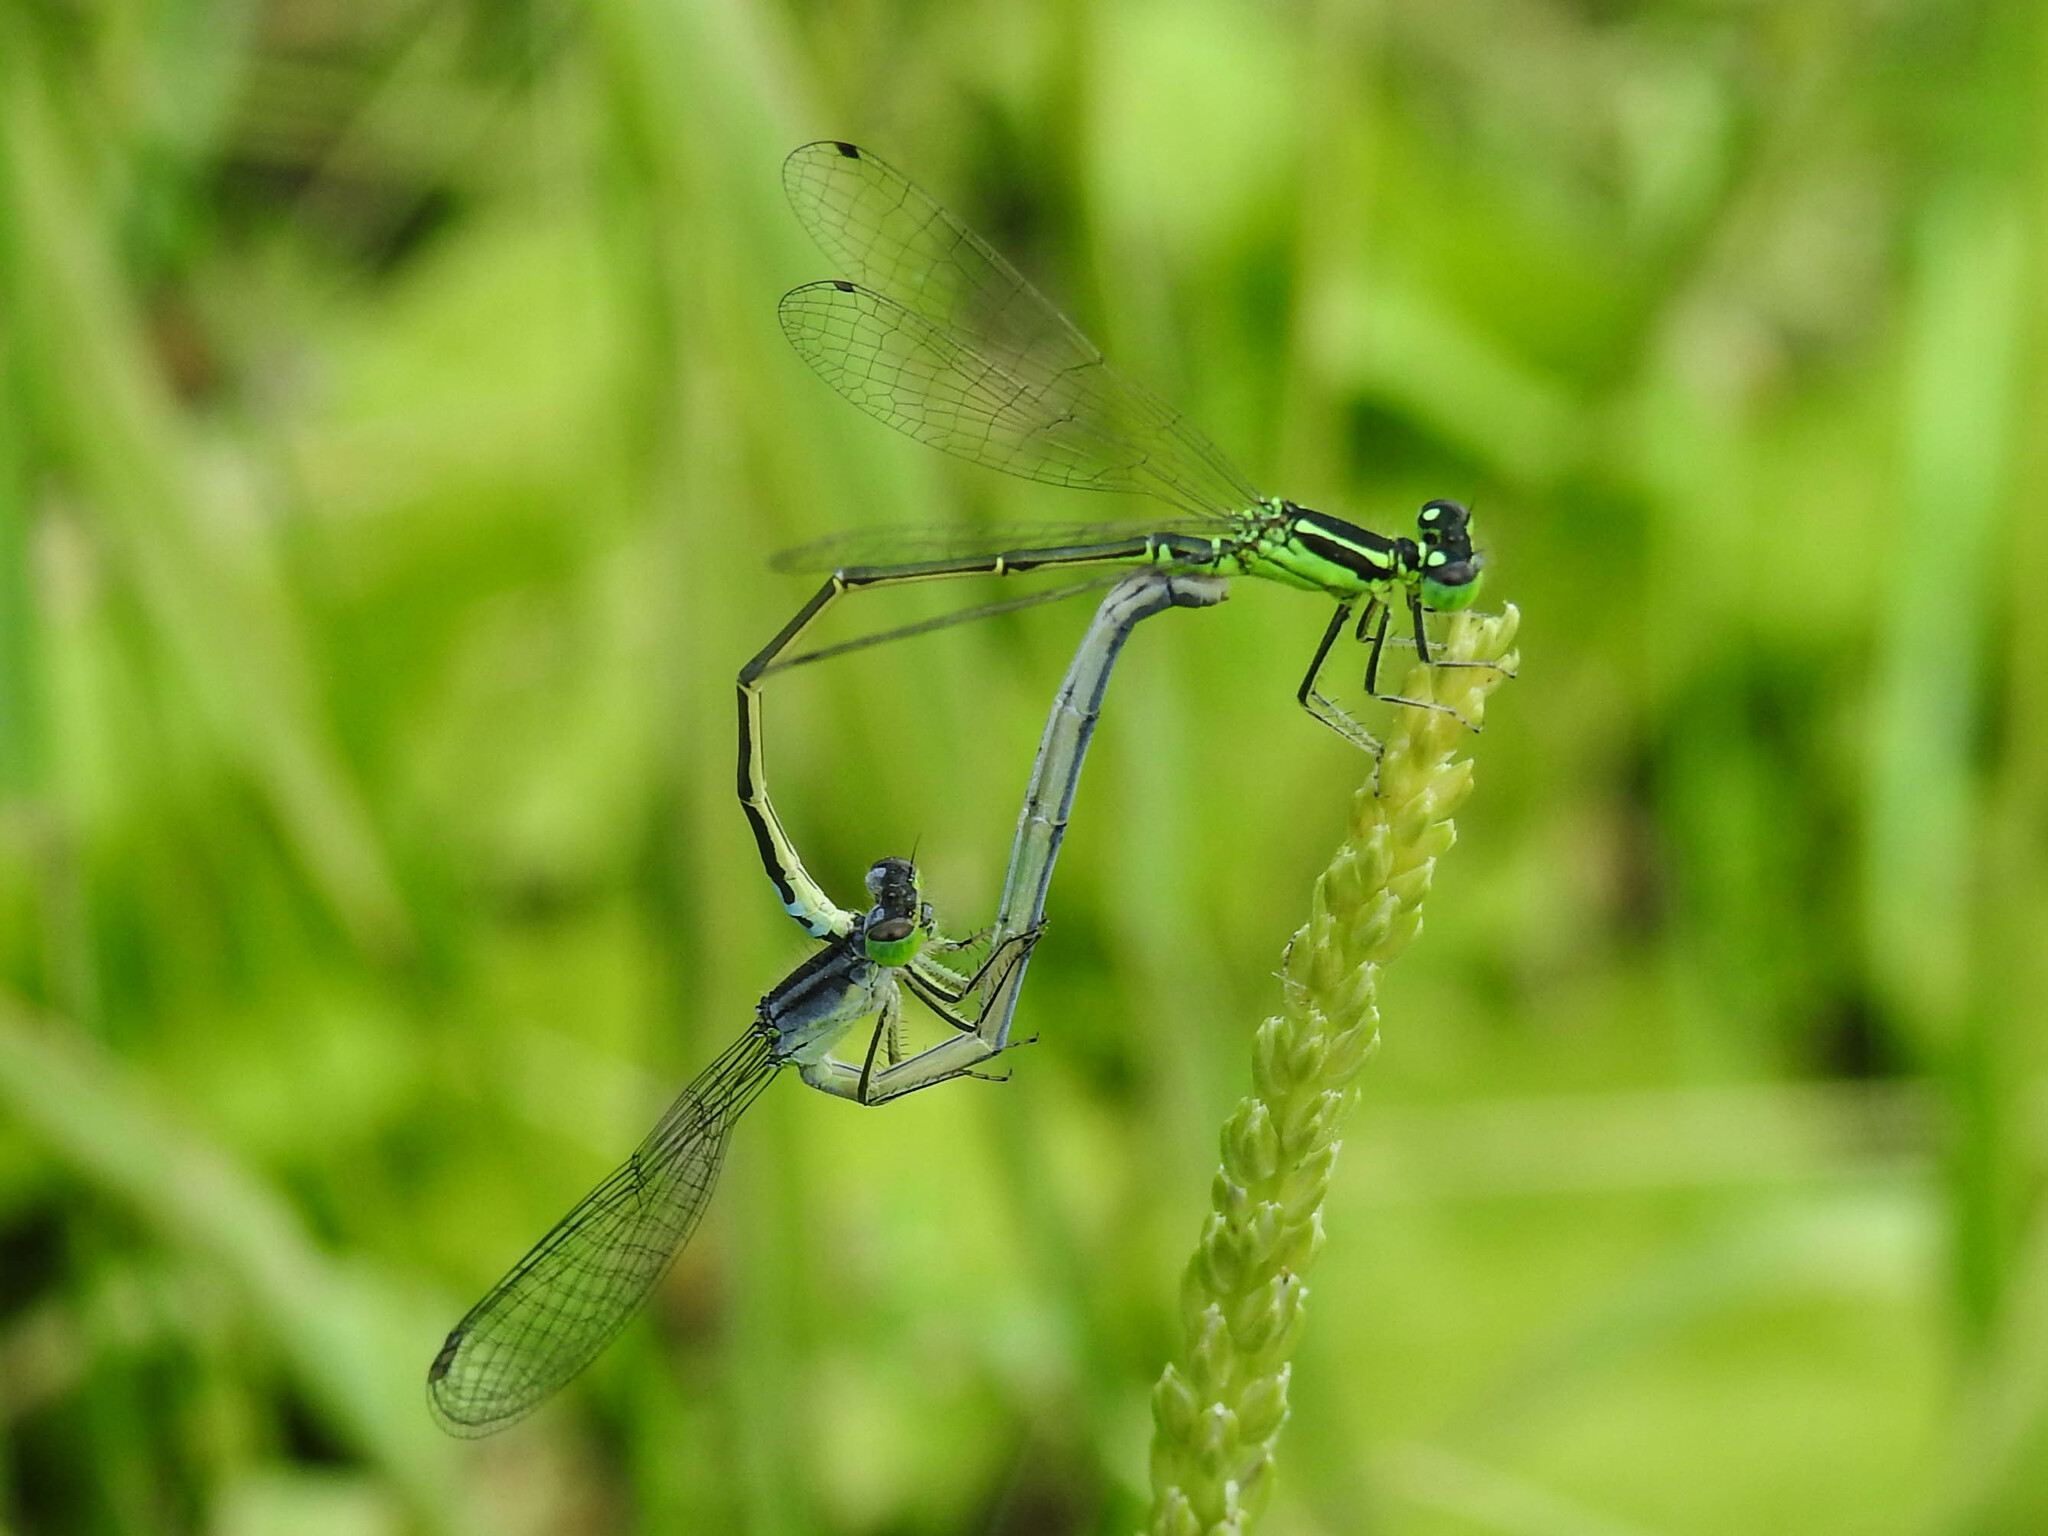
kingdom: Animalia
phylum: Arthropoda
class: Insecta
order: Odonata
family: Coenagrionidae
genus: Ischnura
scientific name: Ischnura verticalis
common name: Eastern forktail
